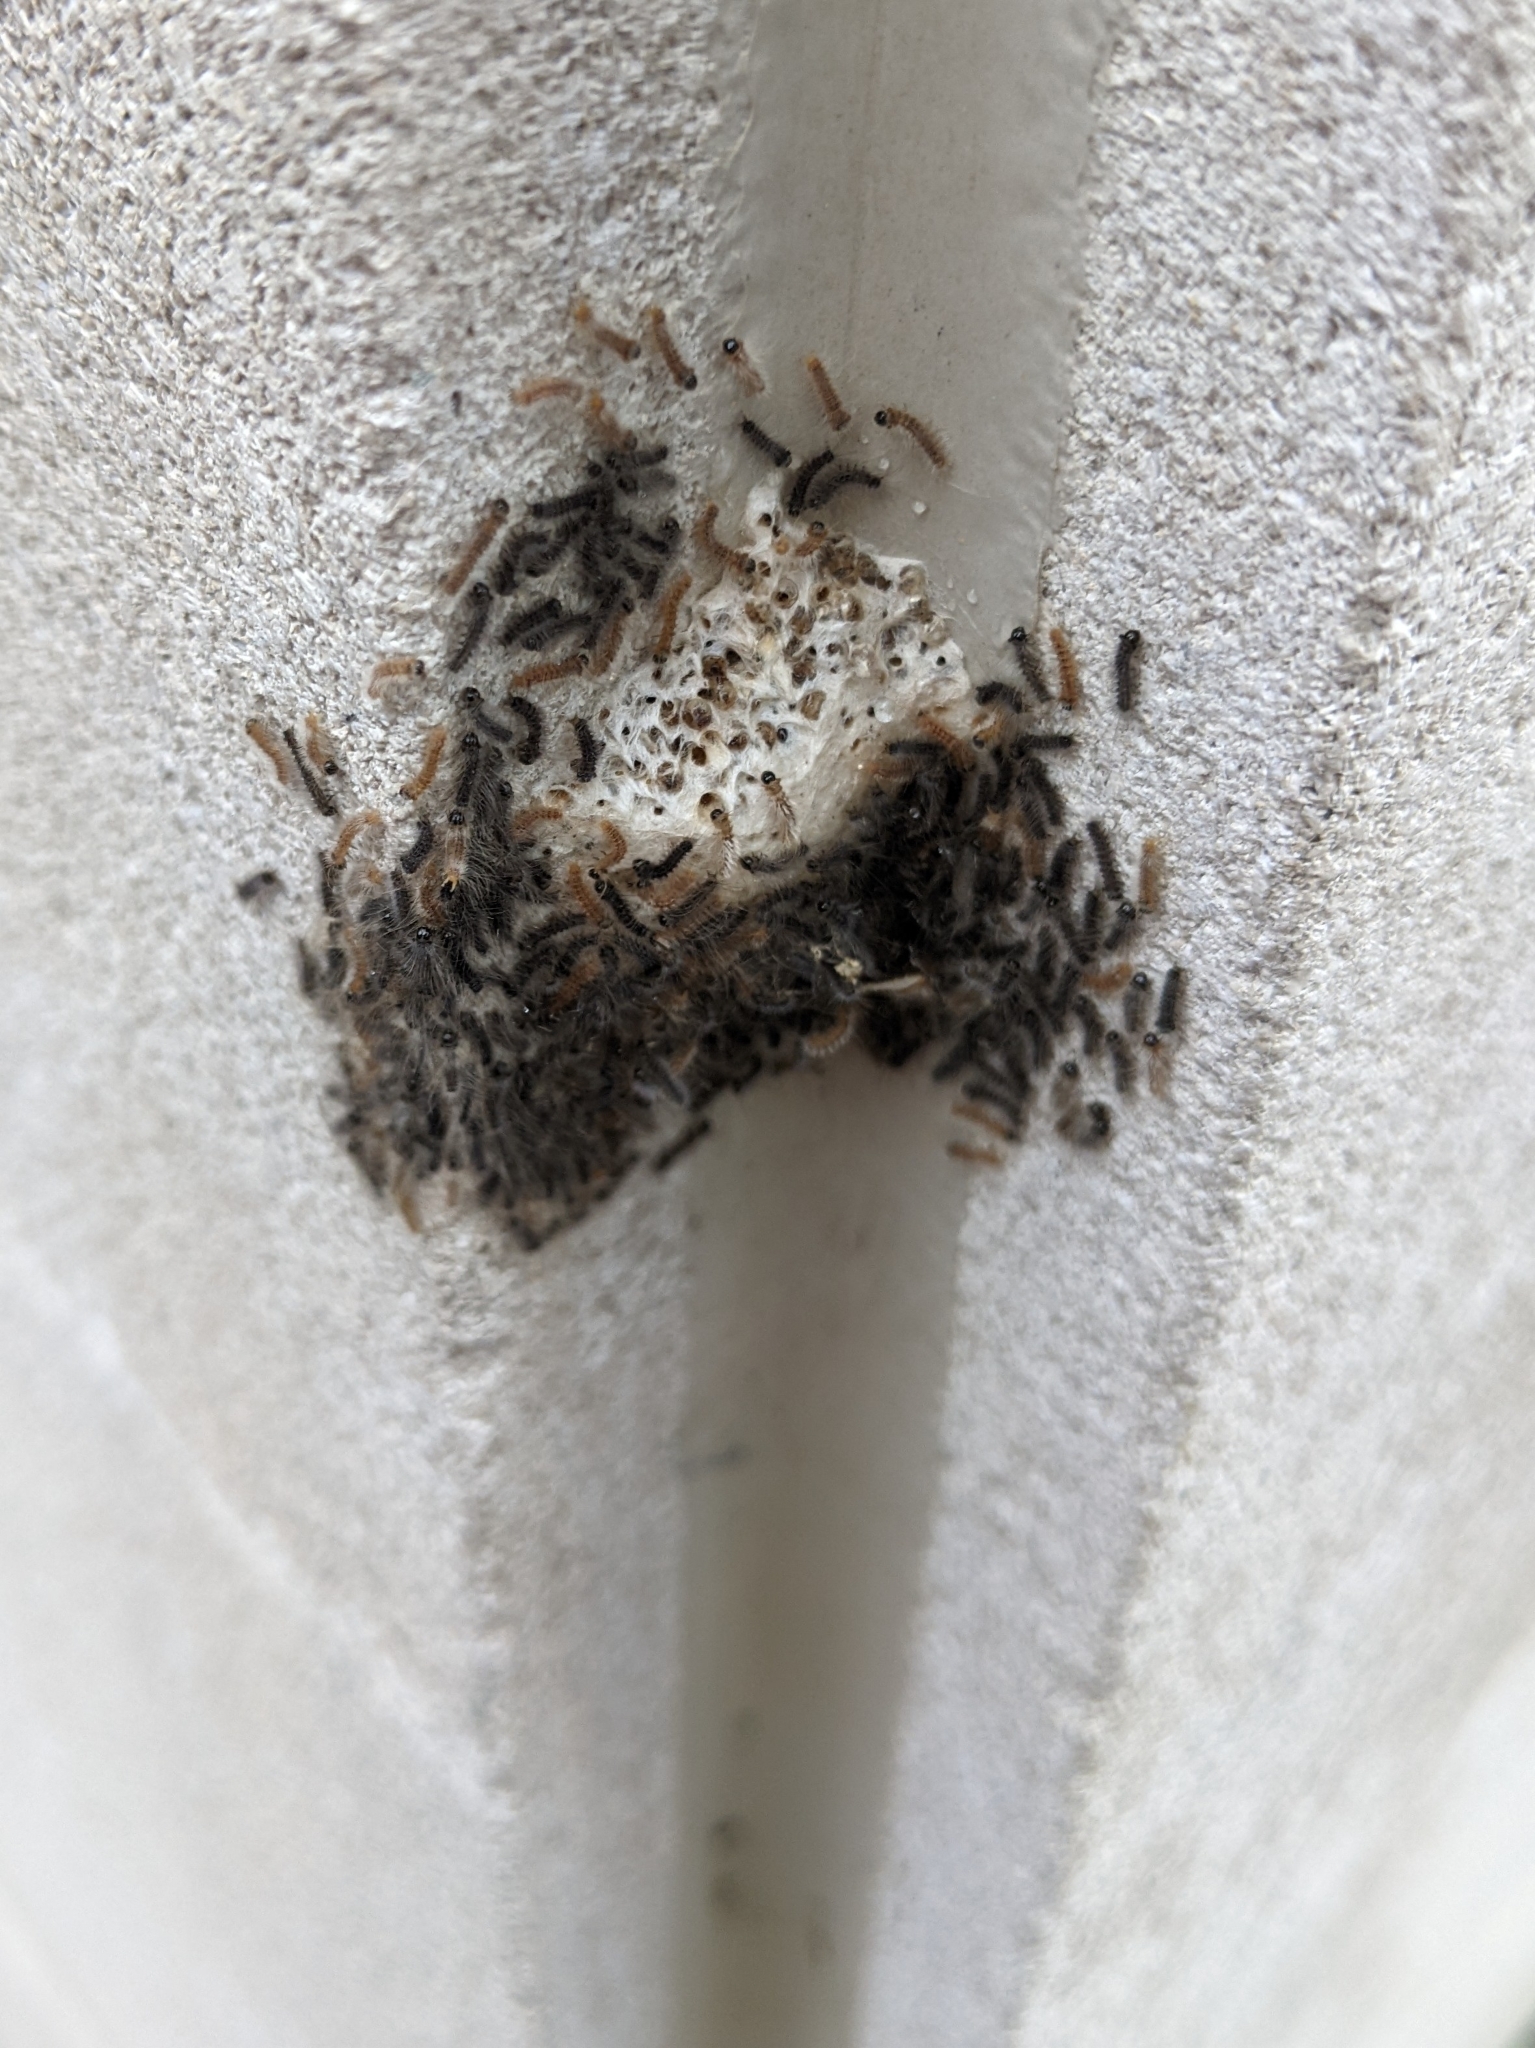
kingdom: Animalia
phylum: Arthropoda
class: Insecta
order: Lepidoptera
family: Erebidae
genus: Lymantria
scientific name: Lymantria dispar
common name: Gypsy moth
